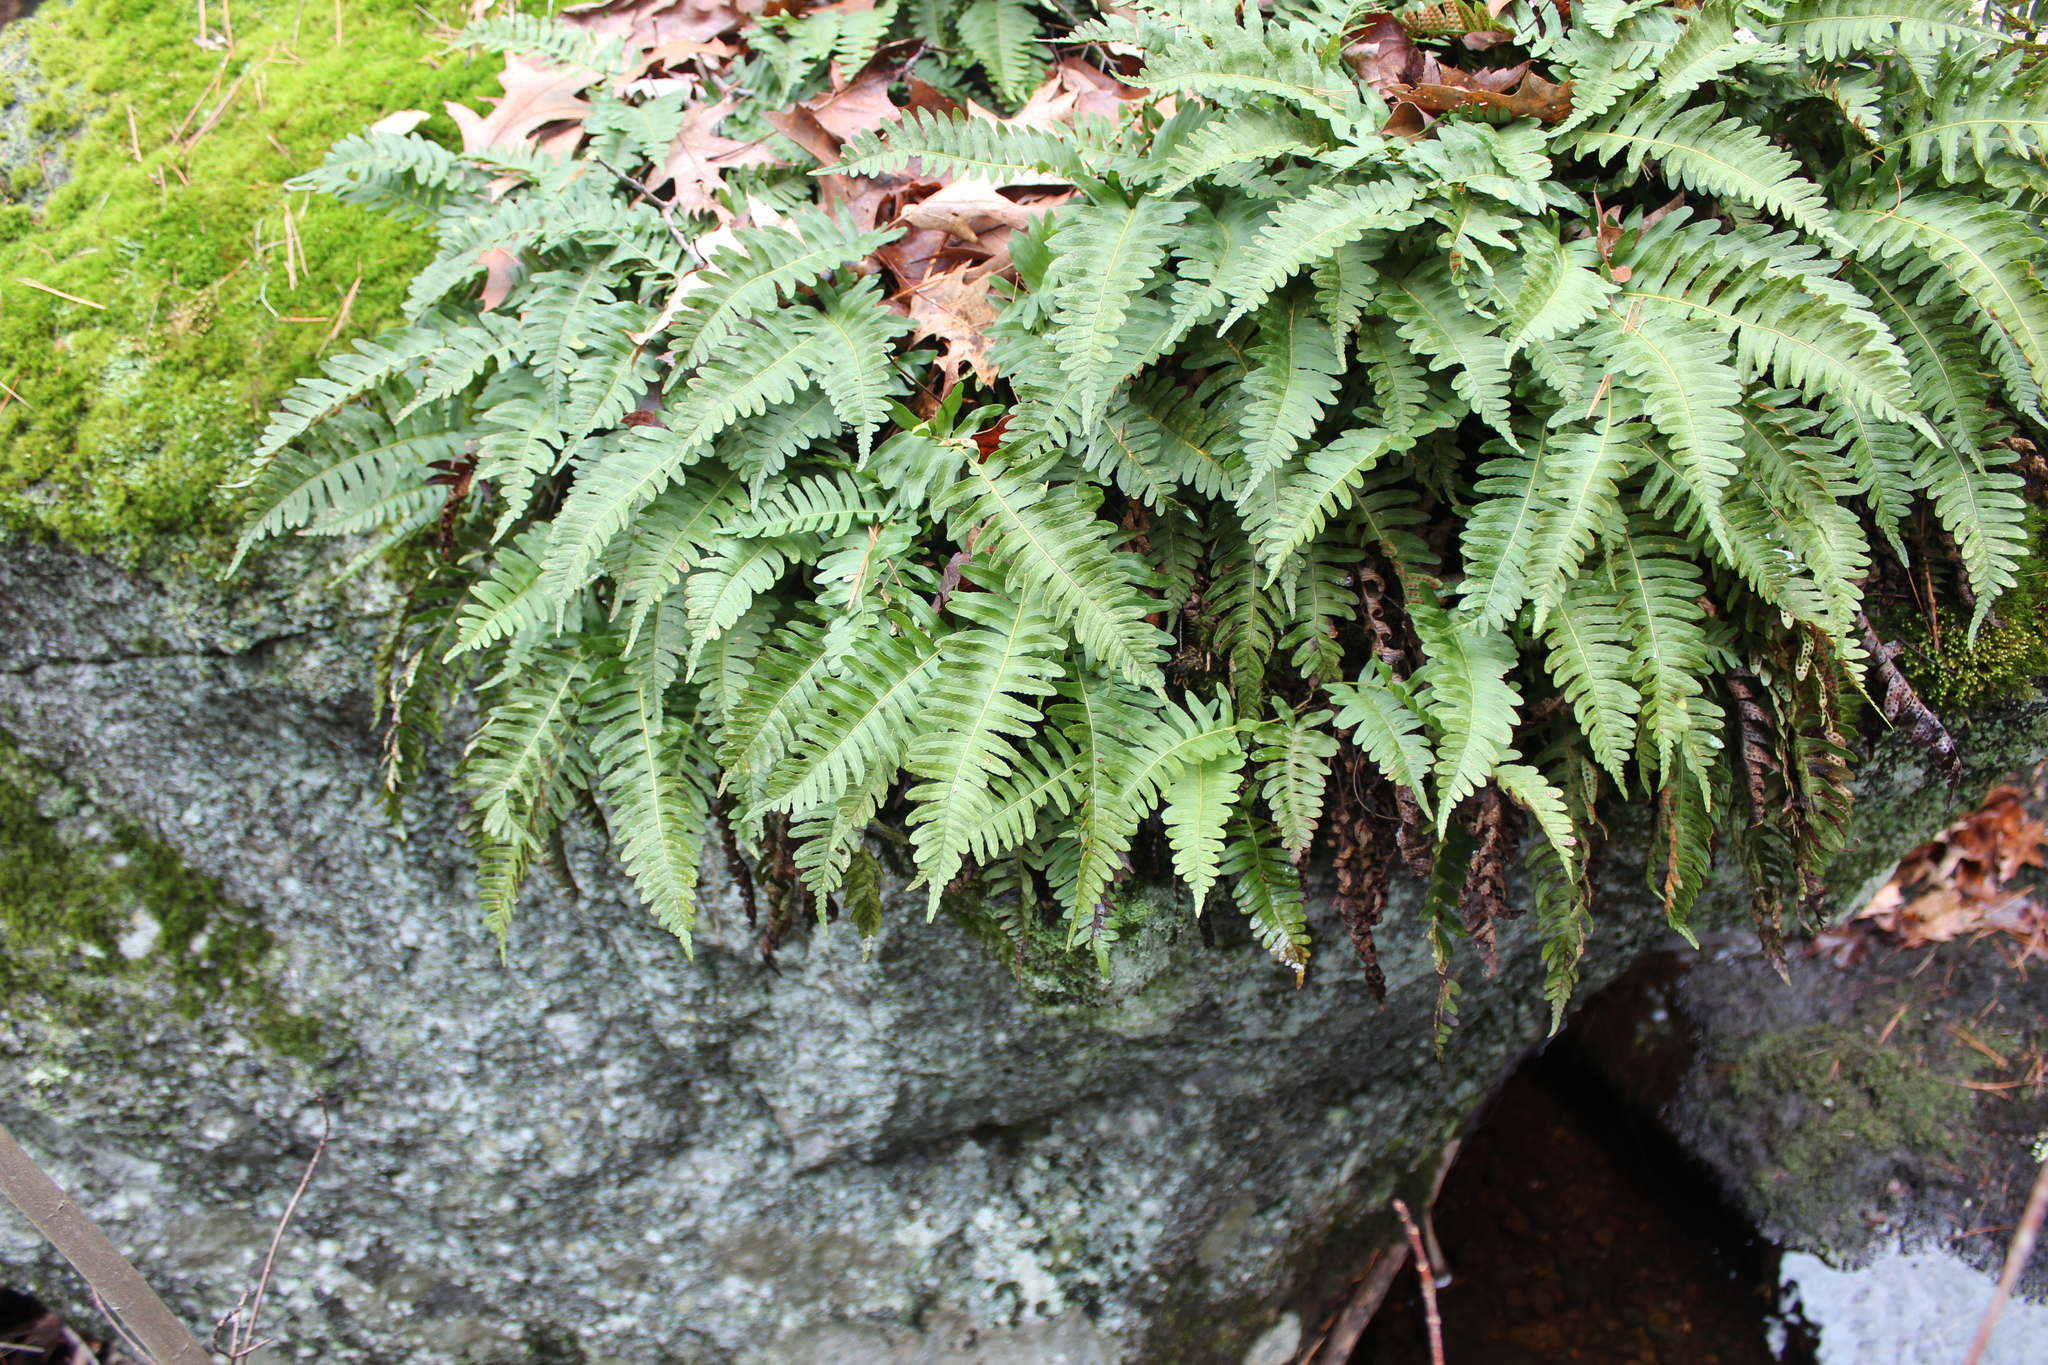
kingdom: Plantae
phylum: Tracheophyta
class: Polypodiopsida
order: Polypodiales
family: Polypodiaceae
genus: Polypodium
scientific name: Polypodium virginianum
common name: American wall fern
